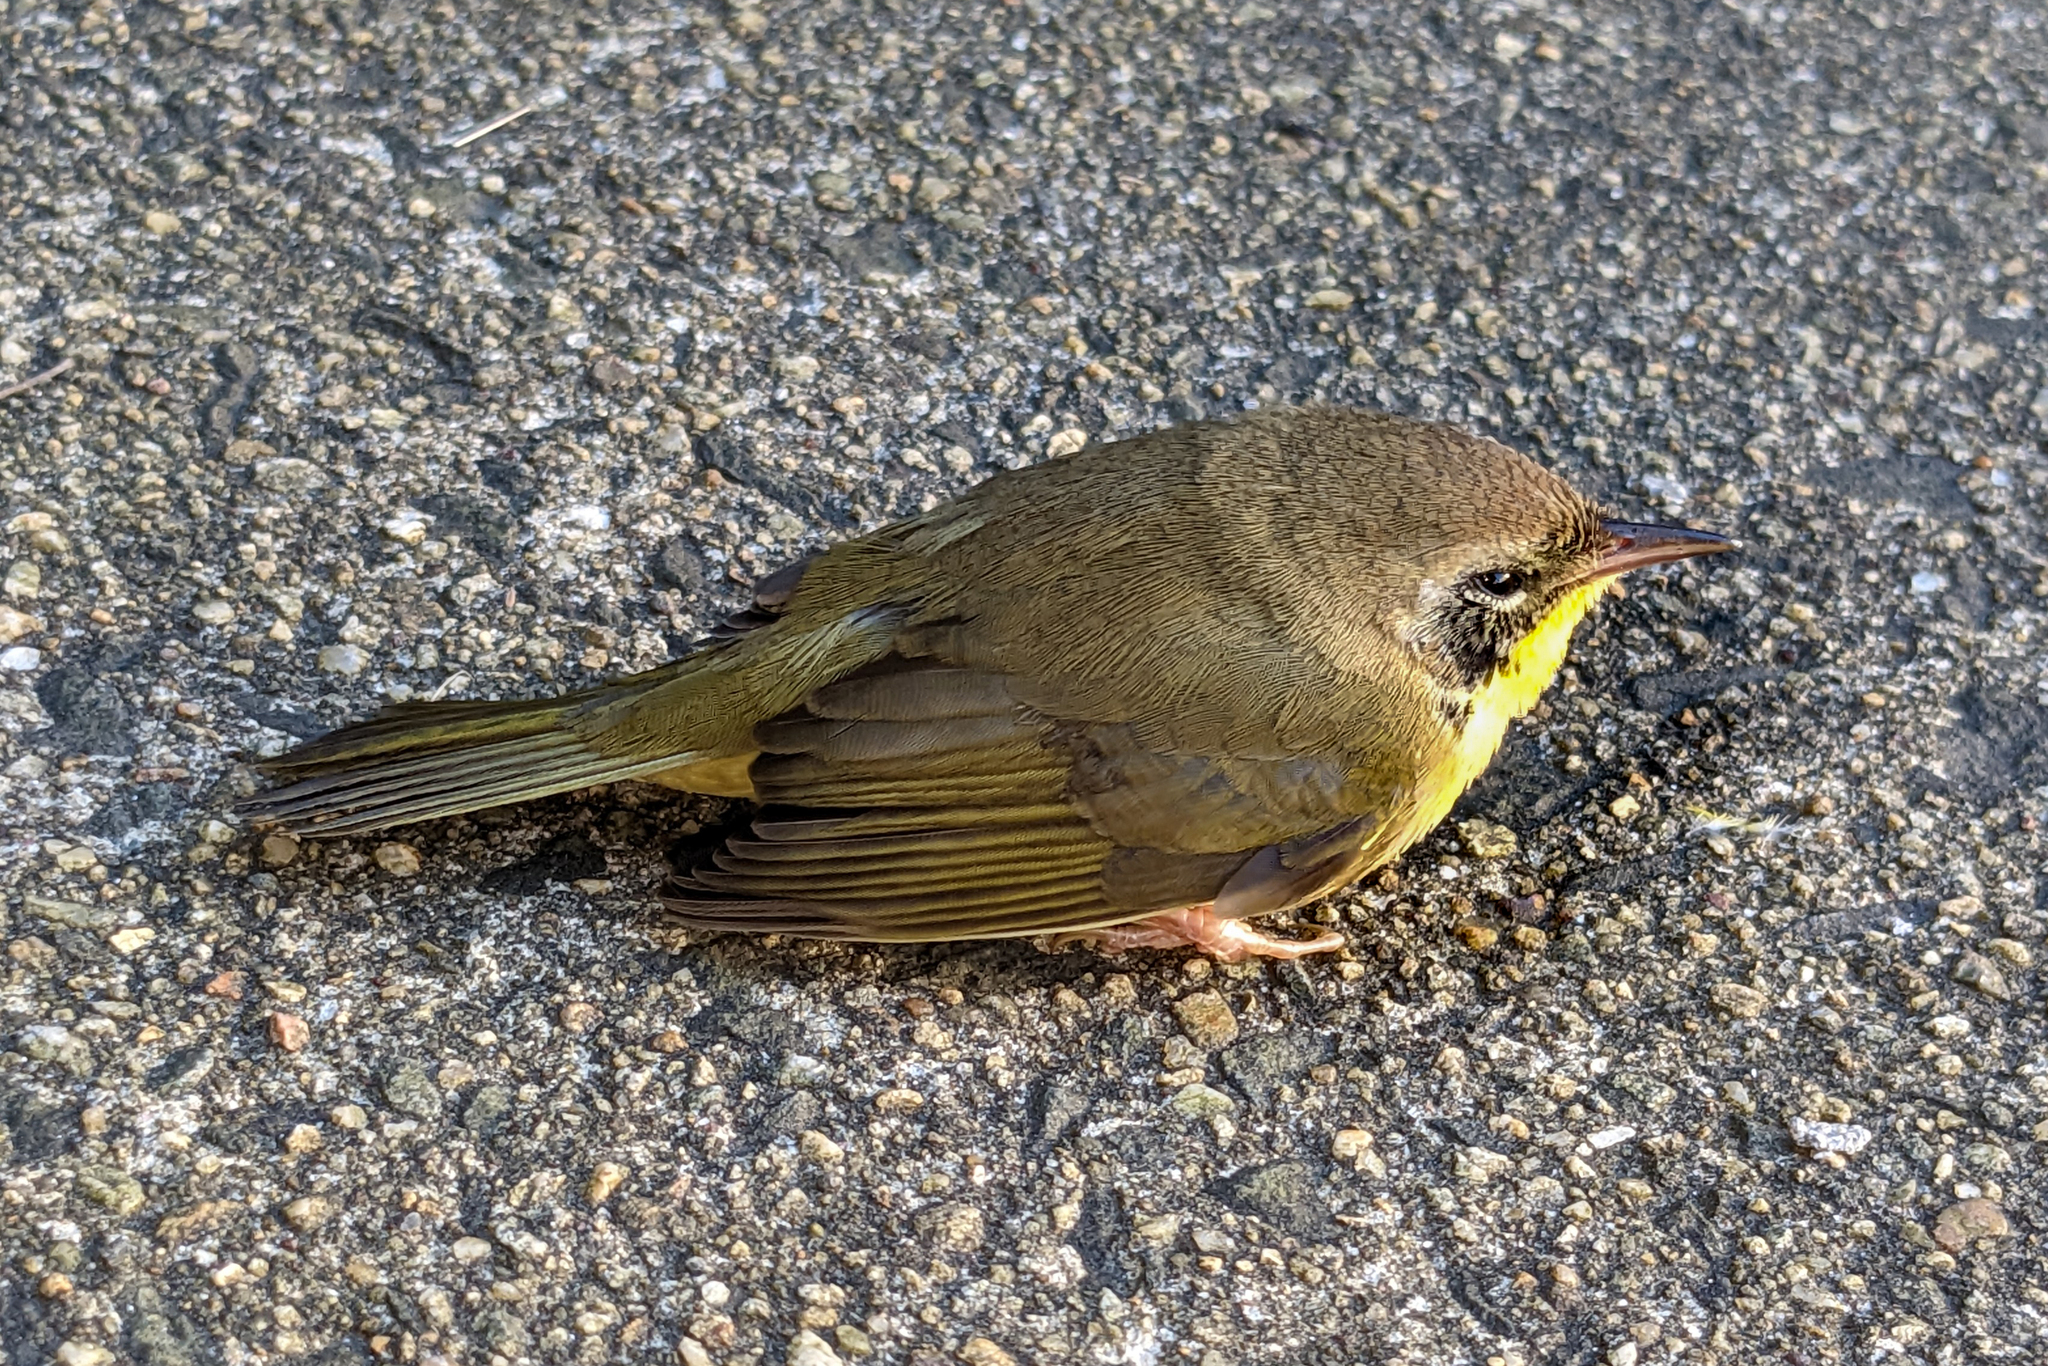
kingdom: Animalia
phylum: Chordata
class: Aves
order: Passeriformes
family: Parulidae
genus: Geothlypis
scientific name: Geothlypis trichas
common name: Common yellowthroat
